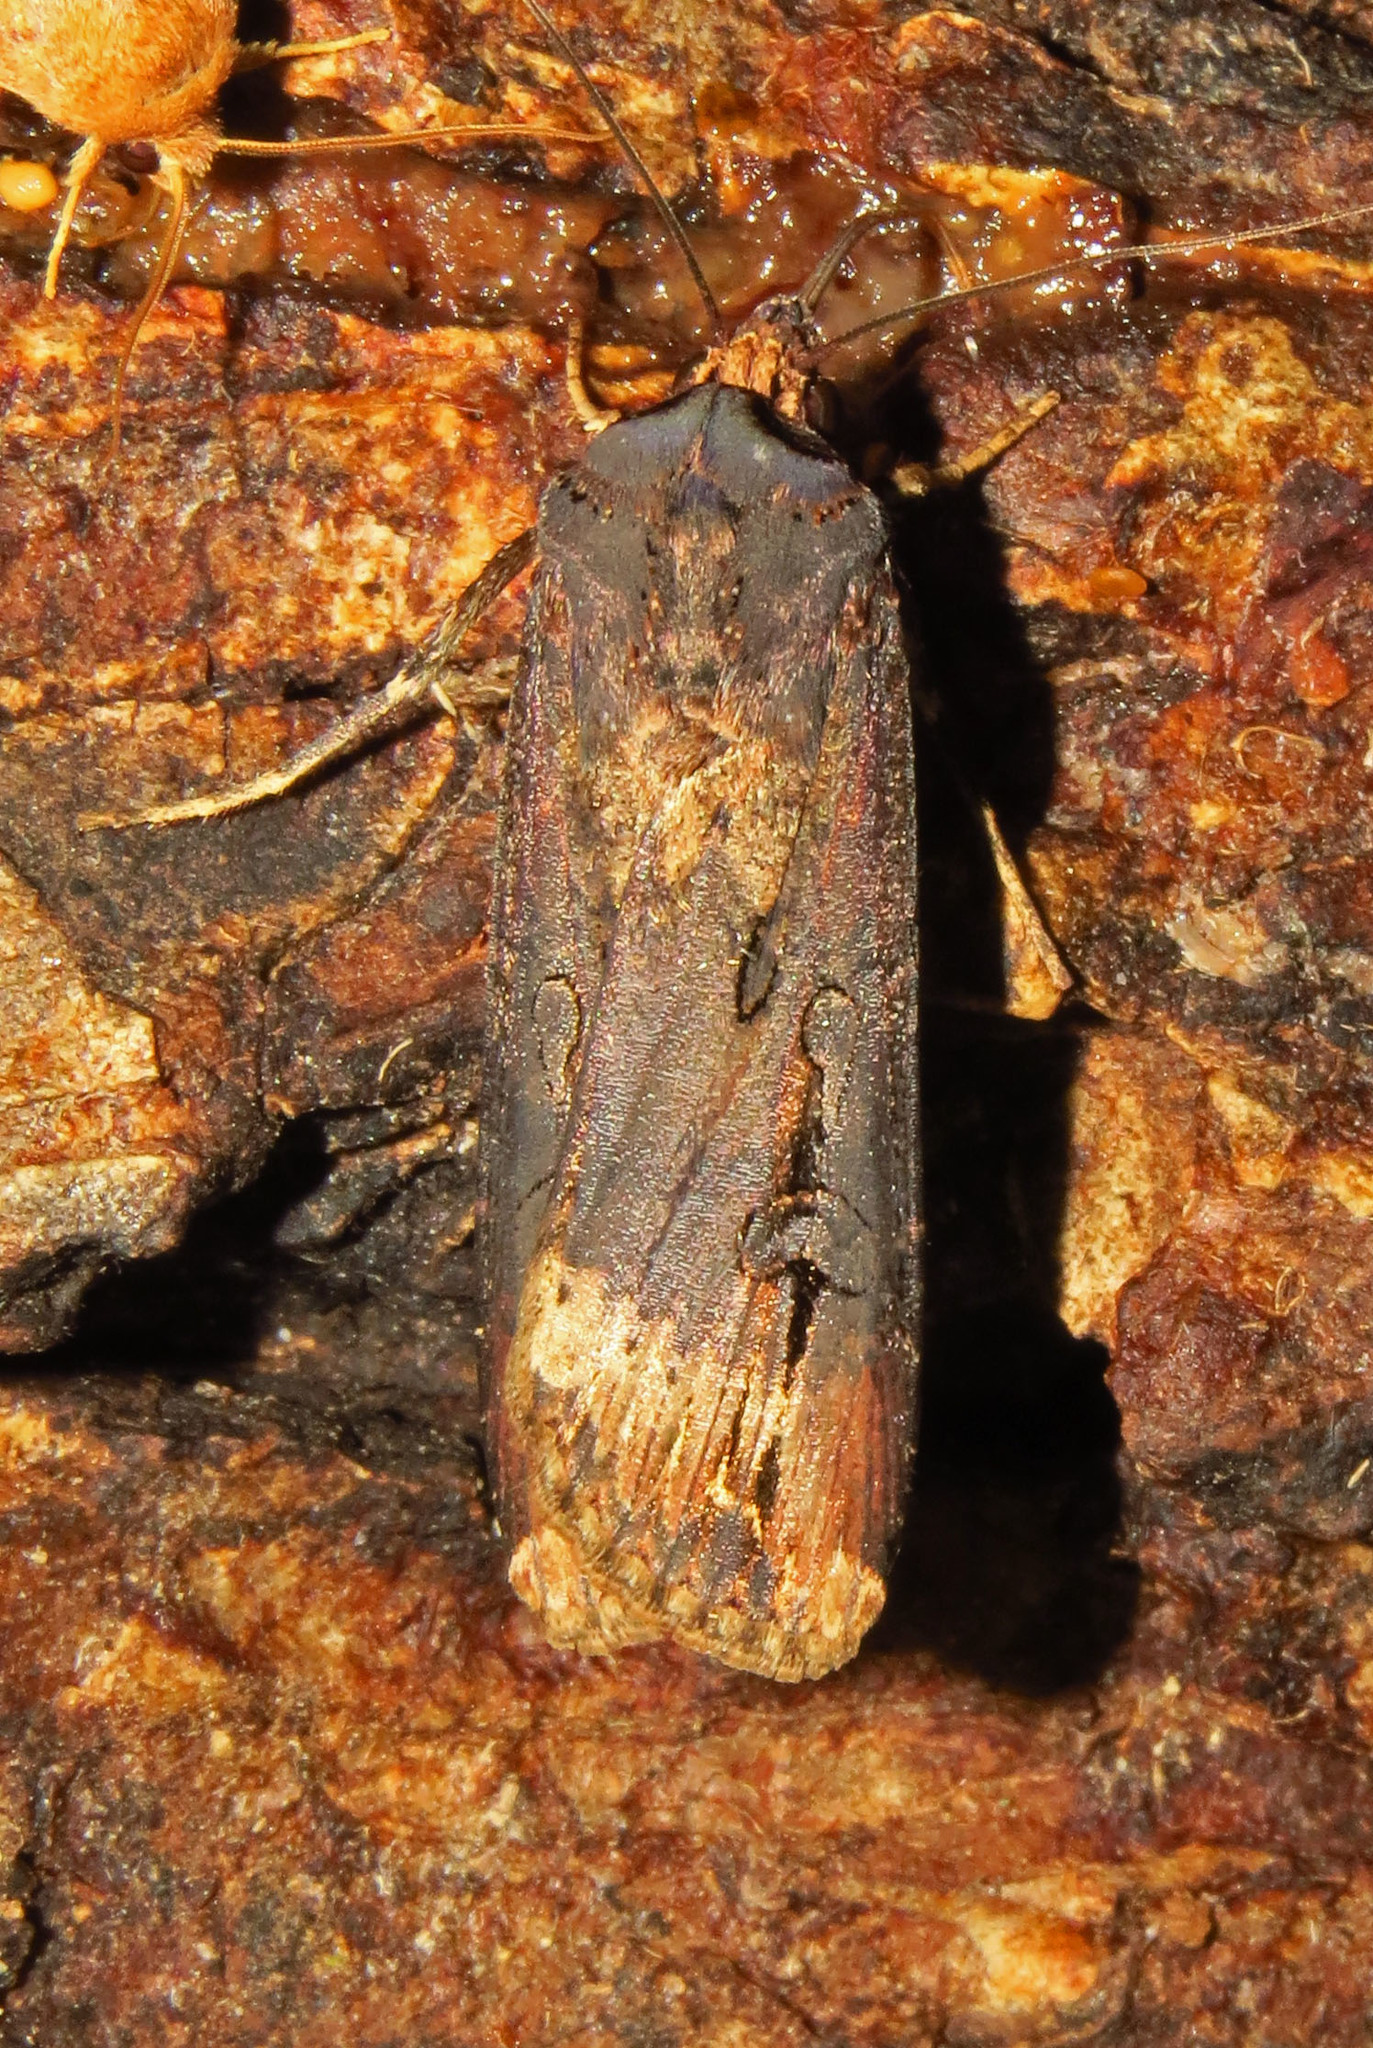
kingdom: Animalia
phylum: Arthropoda
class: Insecta
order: Lepidoptera
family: Noctuidae
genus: Agrotis
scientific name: Agrotis ipsilon
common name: Dark sword-grass
